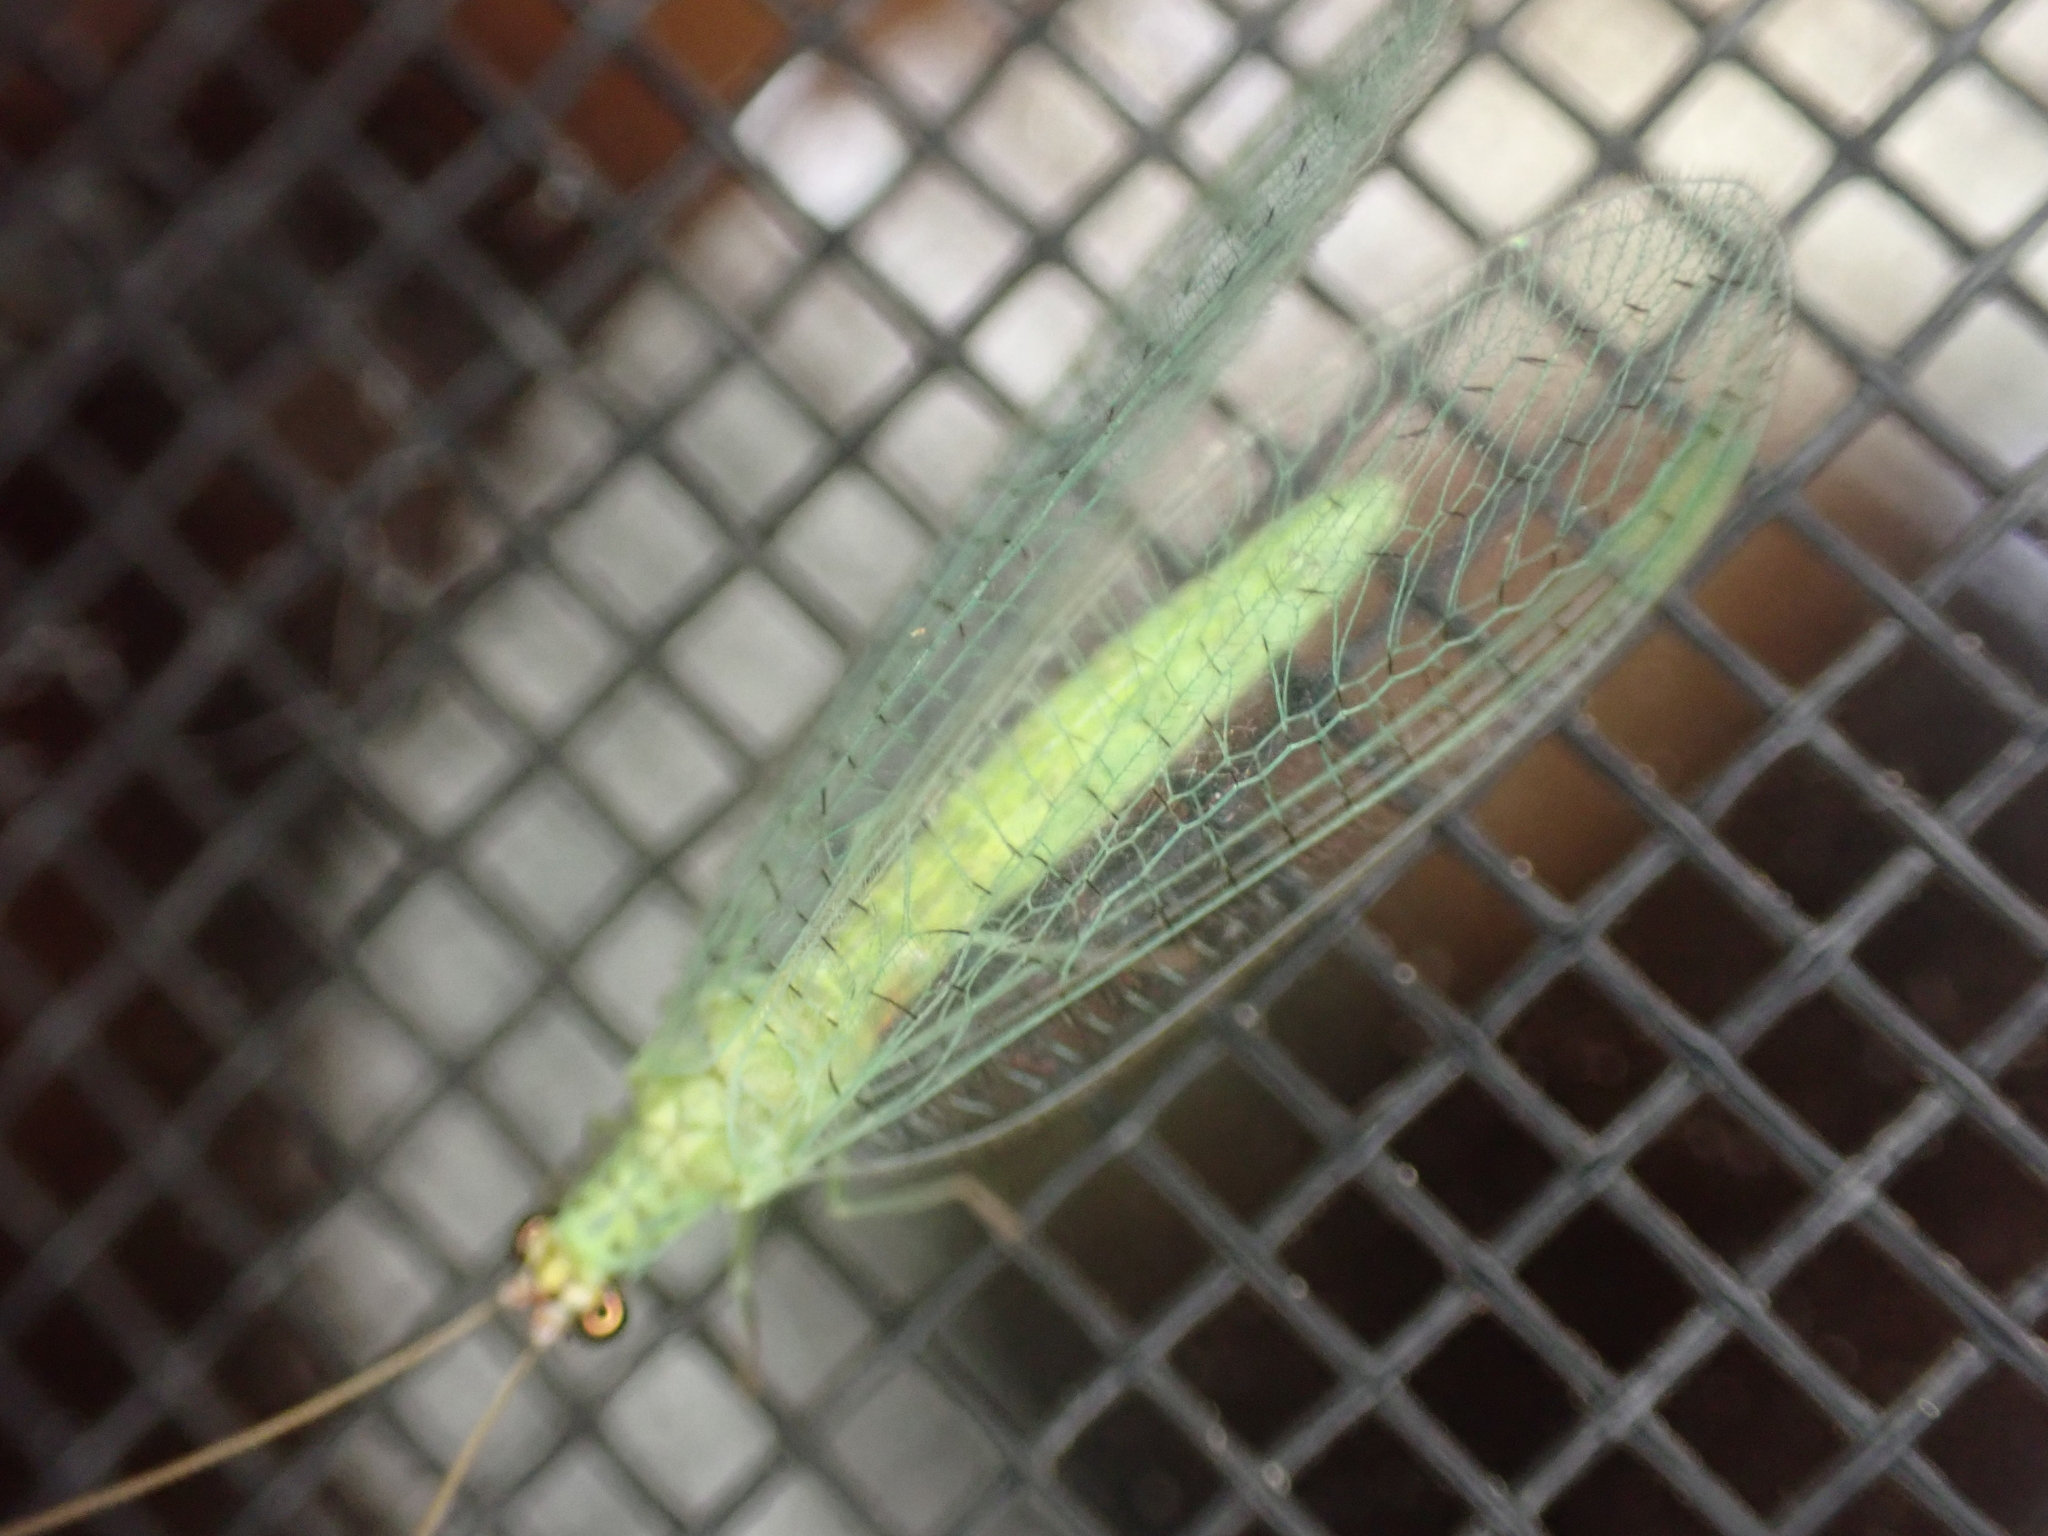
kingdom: Animalia
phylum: Arthropoda
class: Insecta
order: Neuroptera
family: Chrysopidae
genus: Chrysopa
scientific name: Chrysopa oculata
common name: Golden-eyed lacewing
